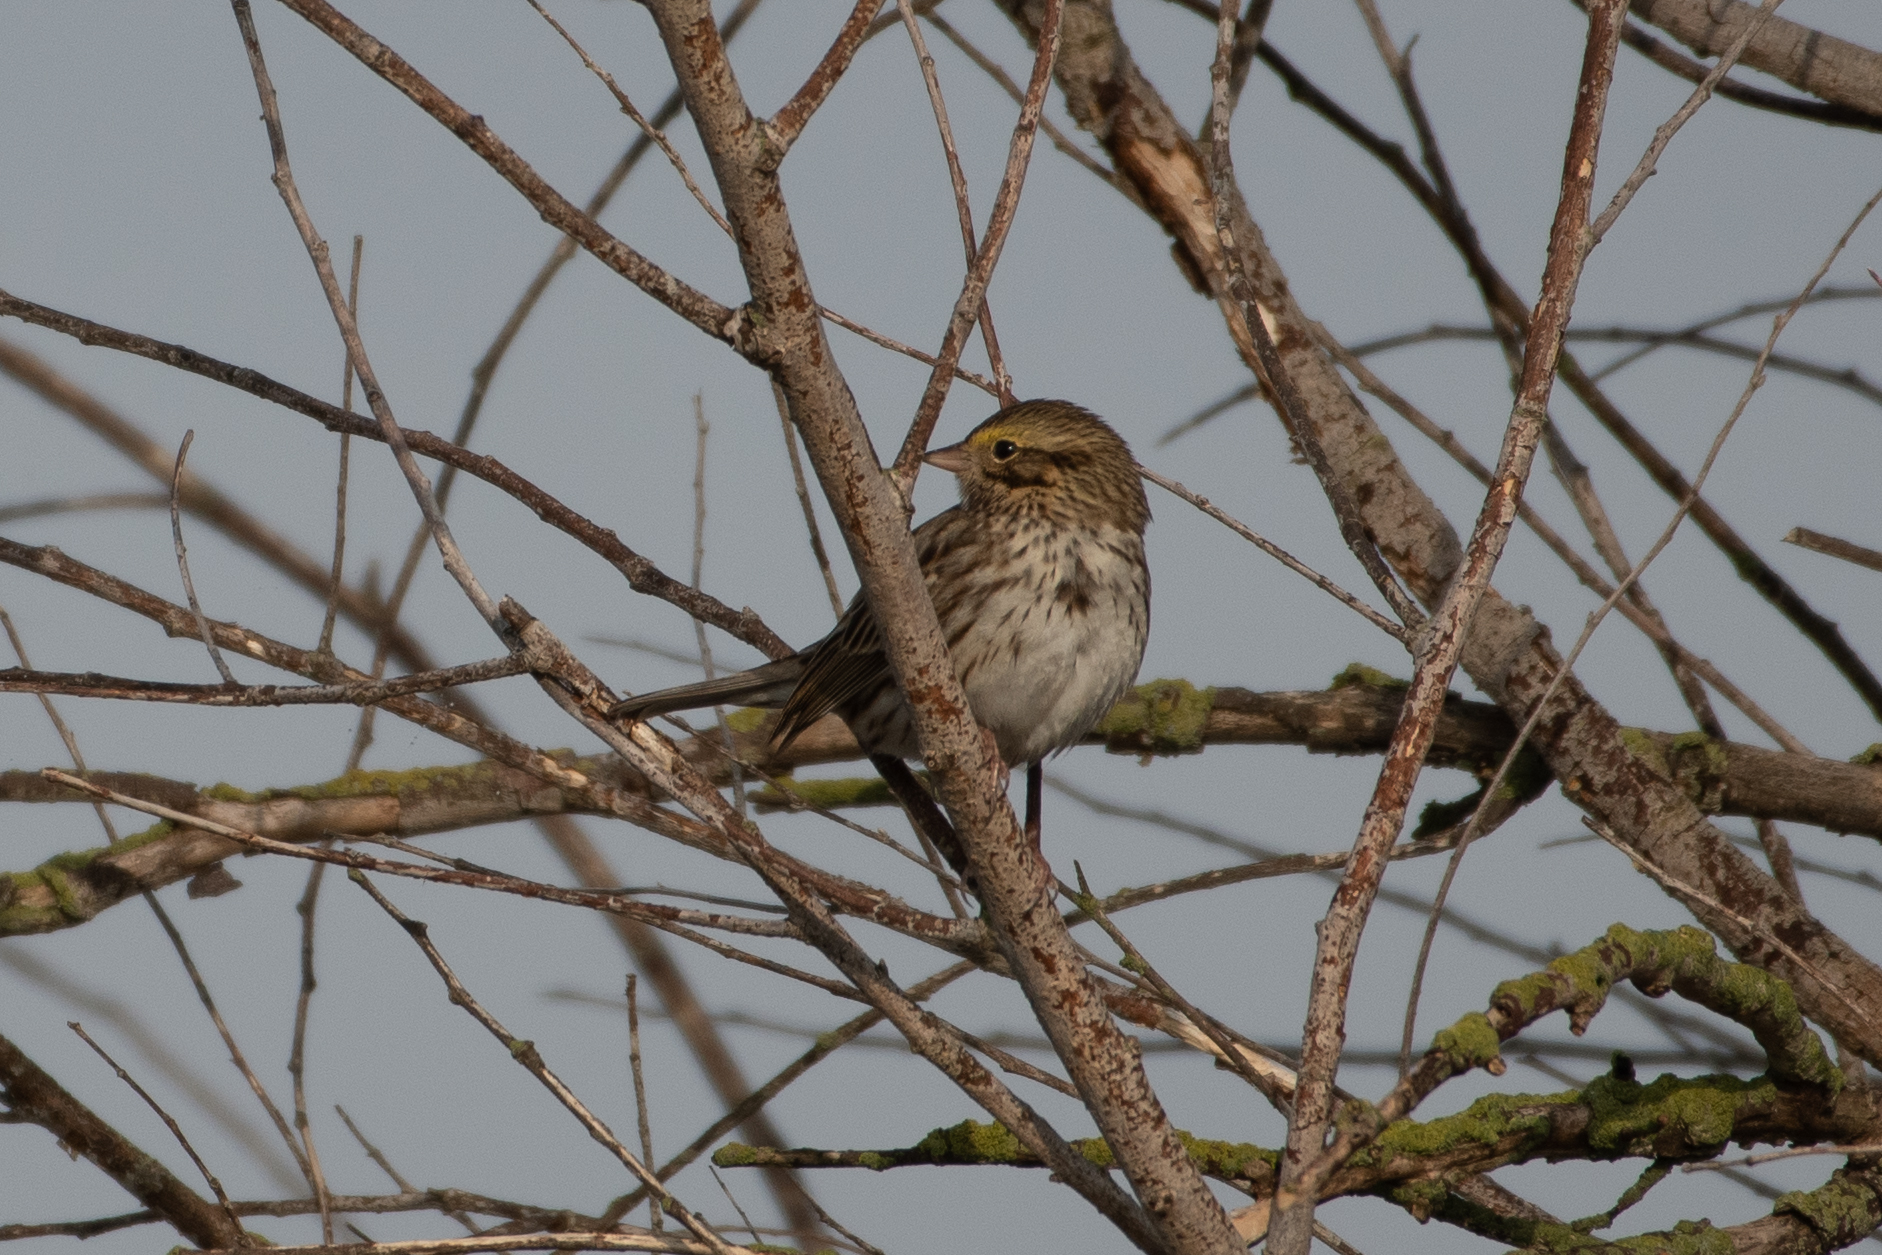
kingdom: Animalia
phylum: Chordata
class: Aves
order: Passeriformes
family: Passerellidae
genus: Passerculus
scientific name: Passerculus sandwichensis
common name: Savannah sparrow
